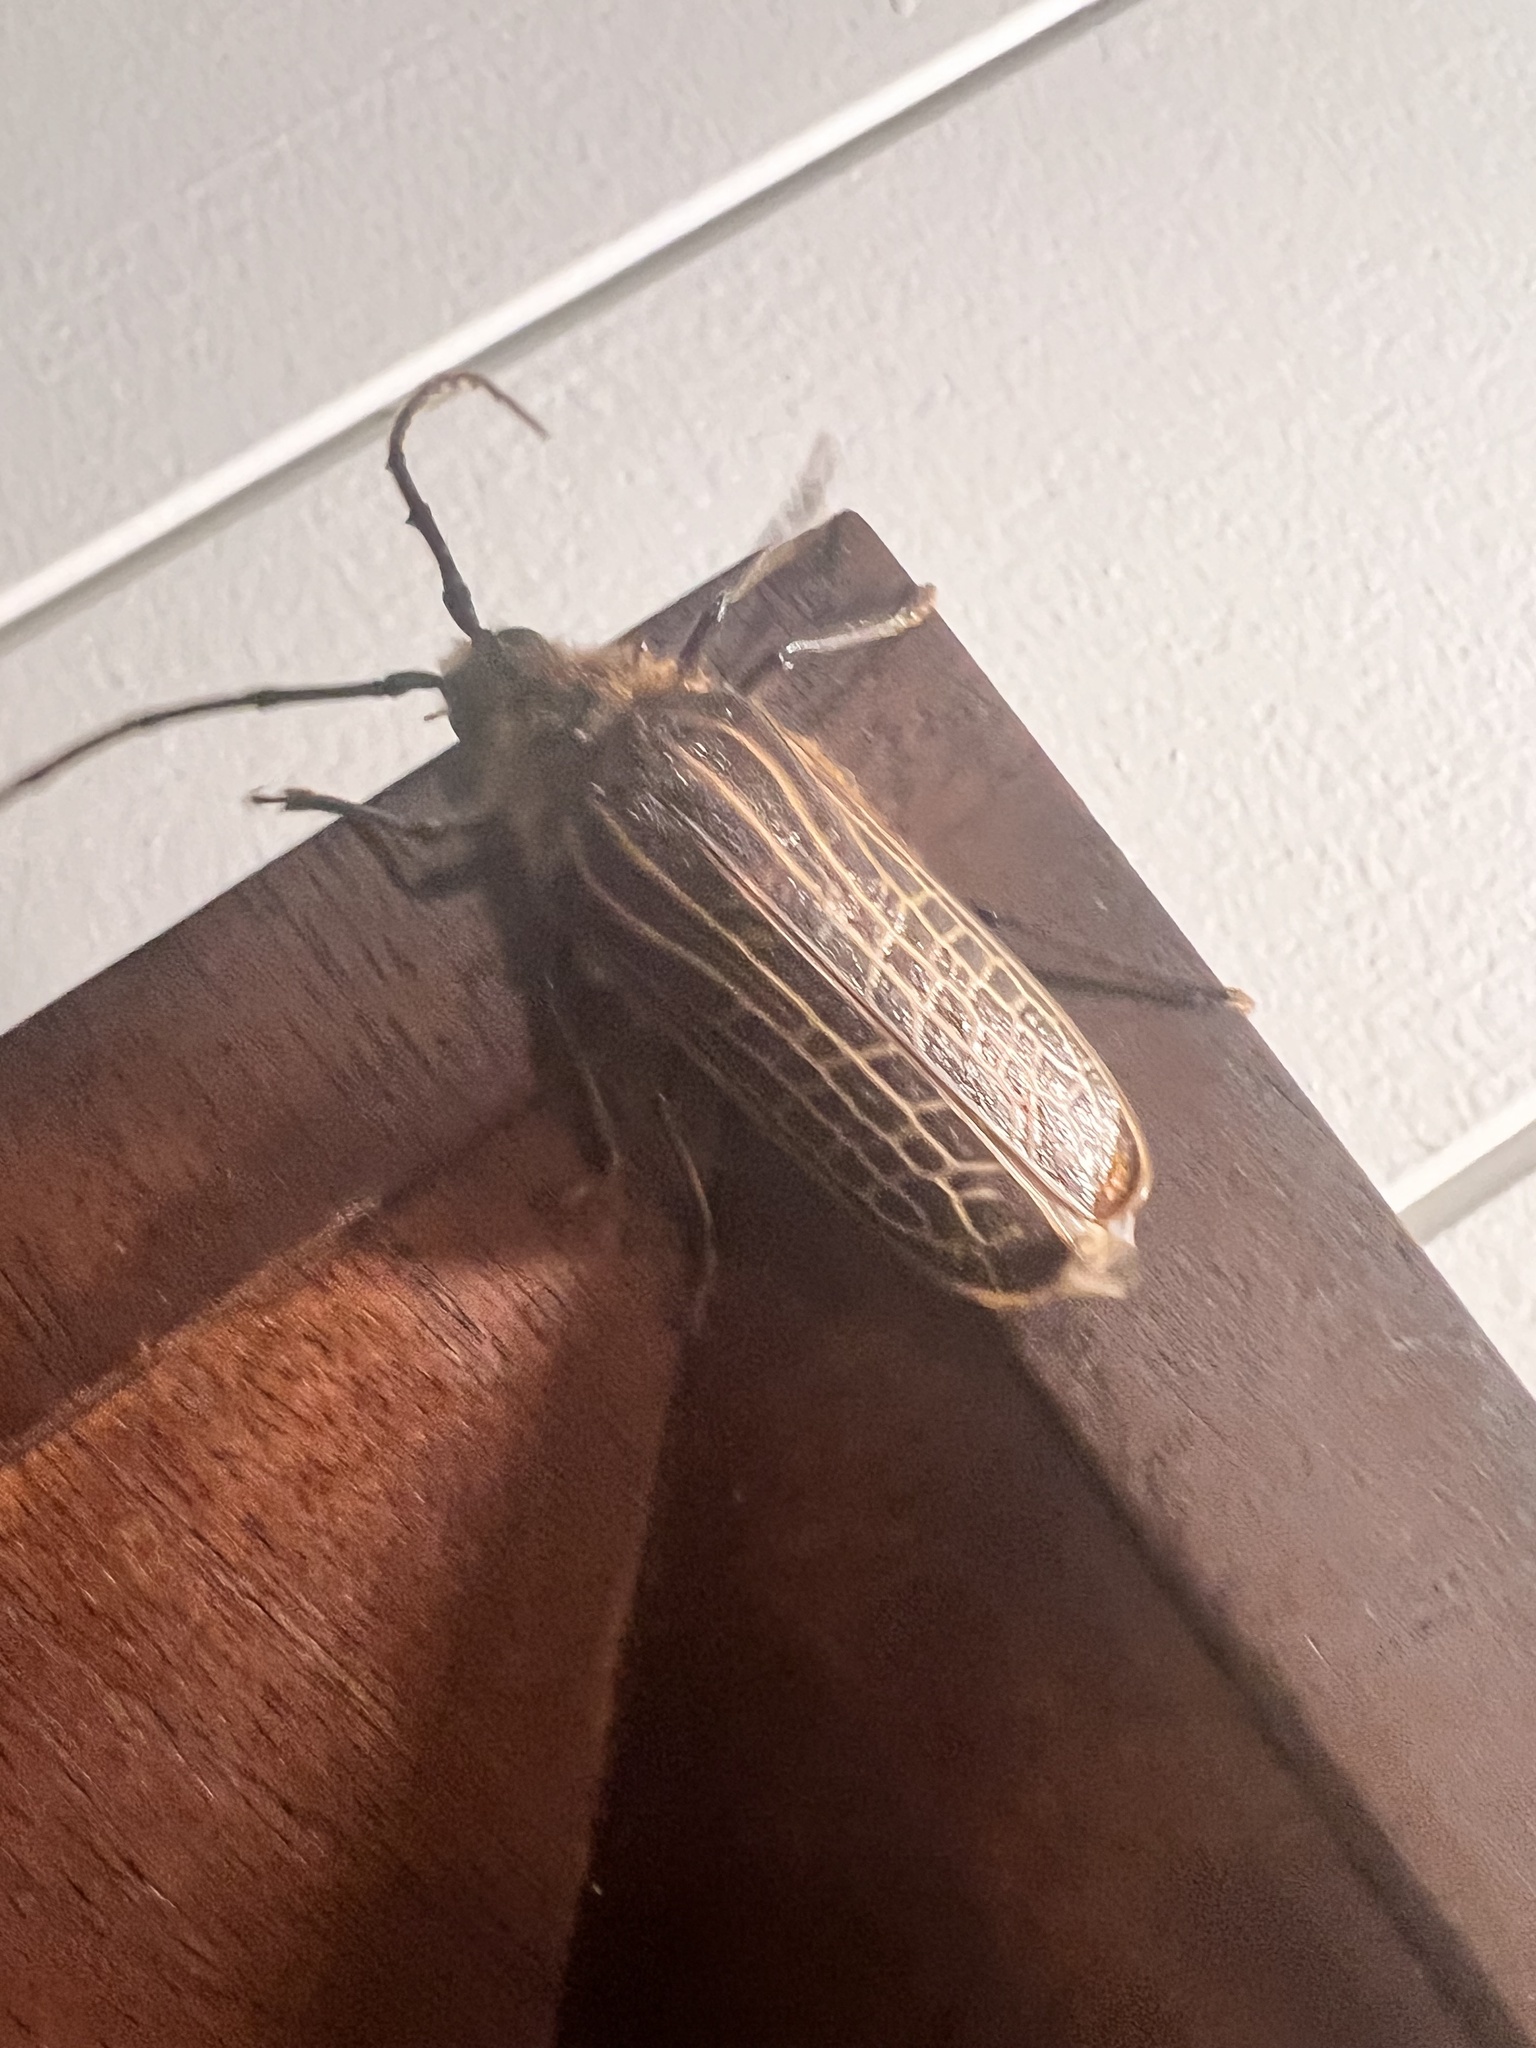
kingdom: Animalia
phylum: Arthropoda
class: Insecta
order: Coleoptera
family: Cerambycidae
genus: Prionoplus
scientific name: Prionoplus reticularis
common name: Huhu beetle
